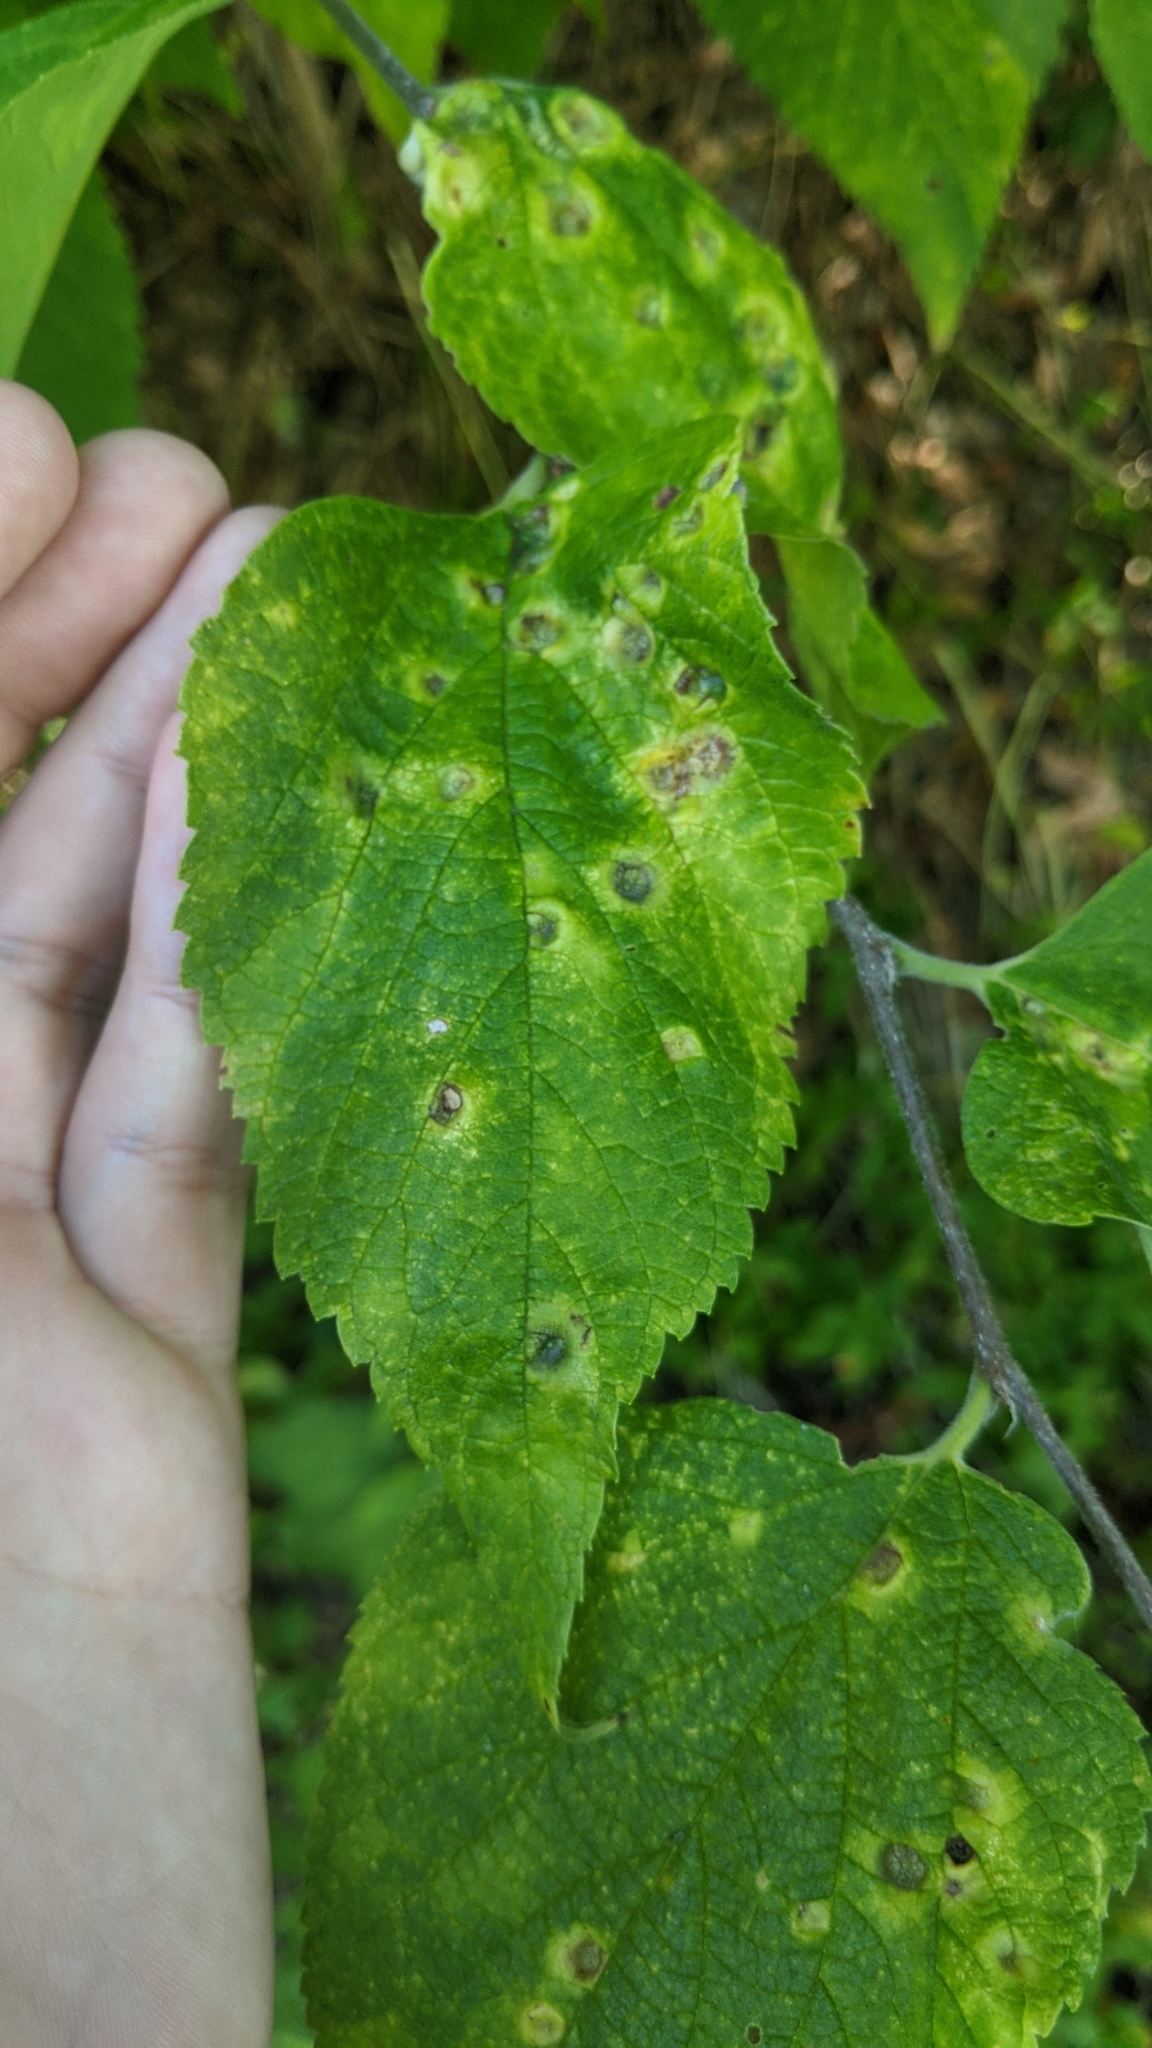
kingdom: Animalia
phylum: Arthropoda
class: Insecta
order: Hemiptera
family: Aphalaridae
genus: Pachypsylla
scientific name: Pachypsylla celtidismamma
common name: Hackberry nipplegall psyllid
